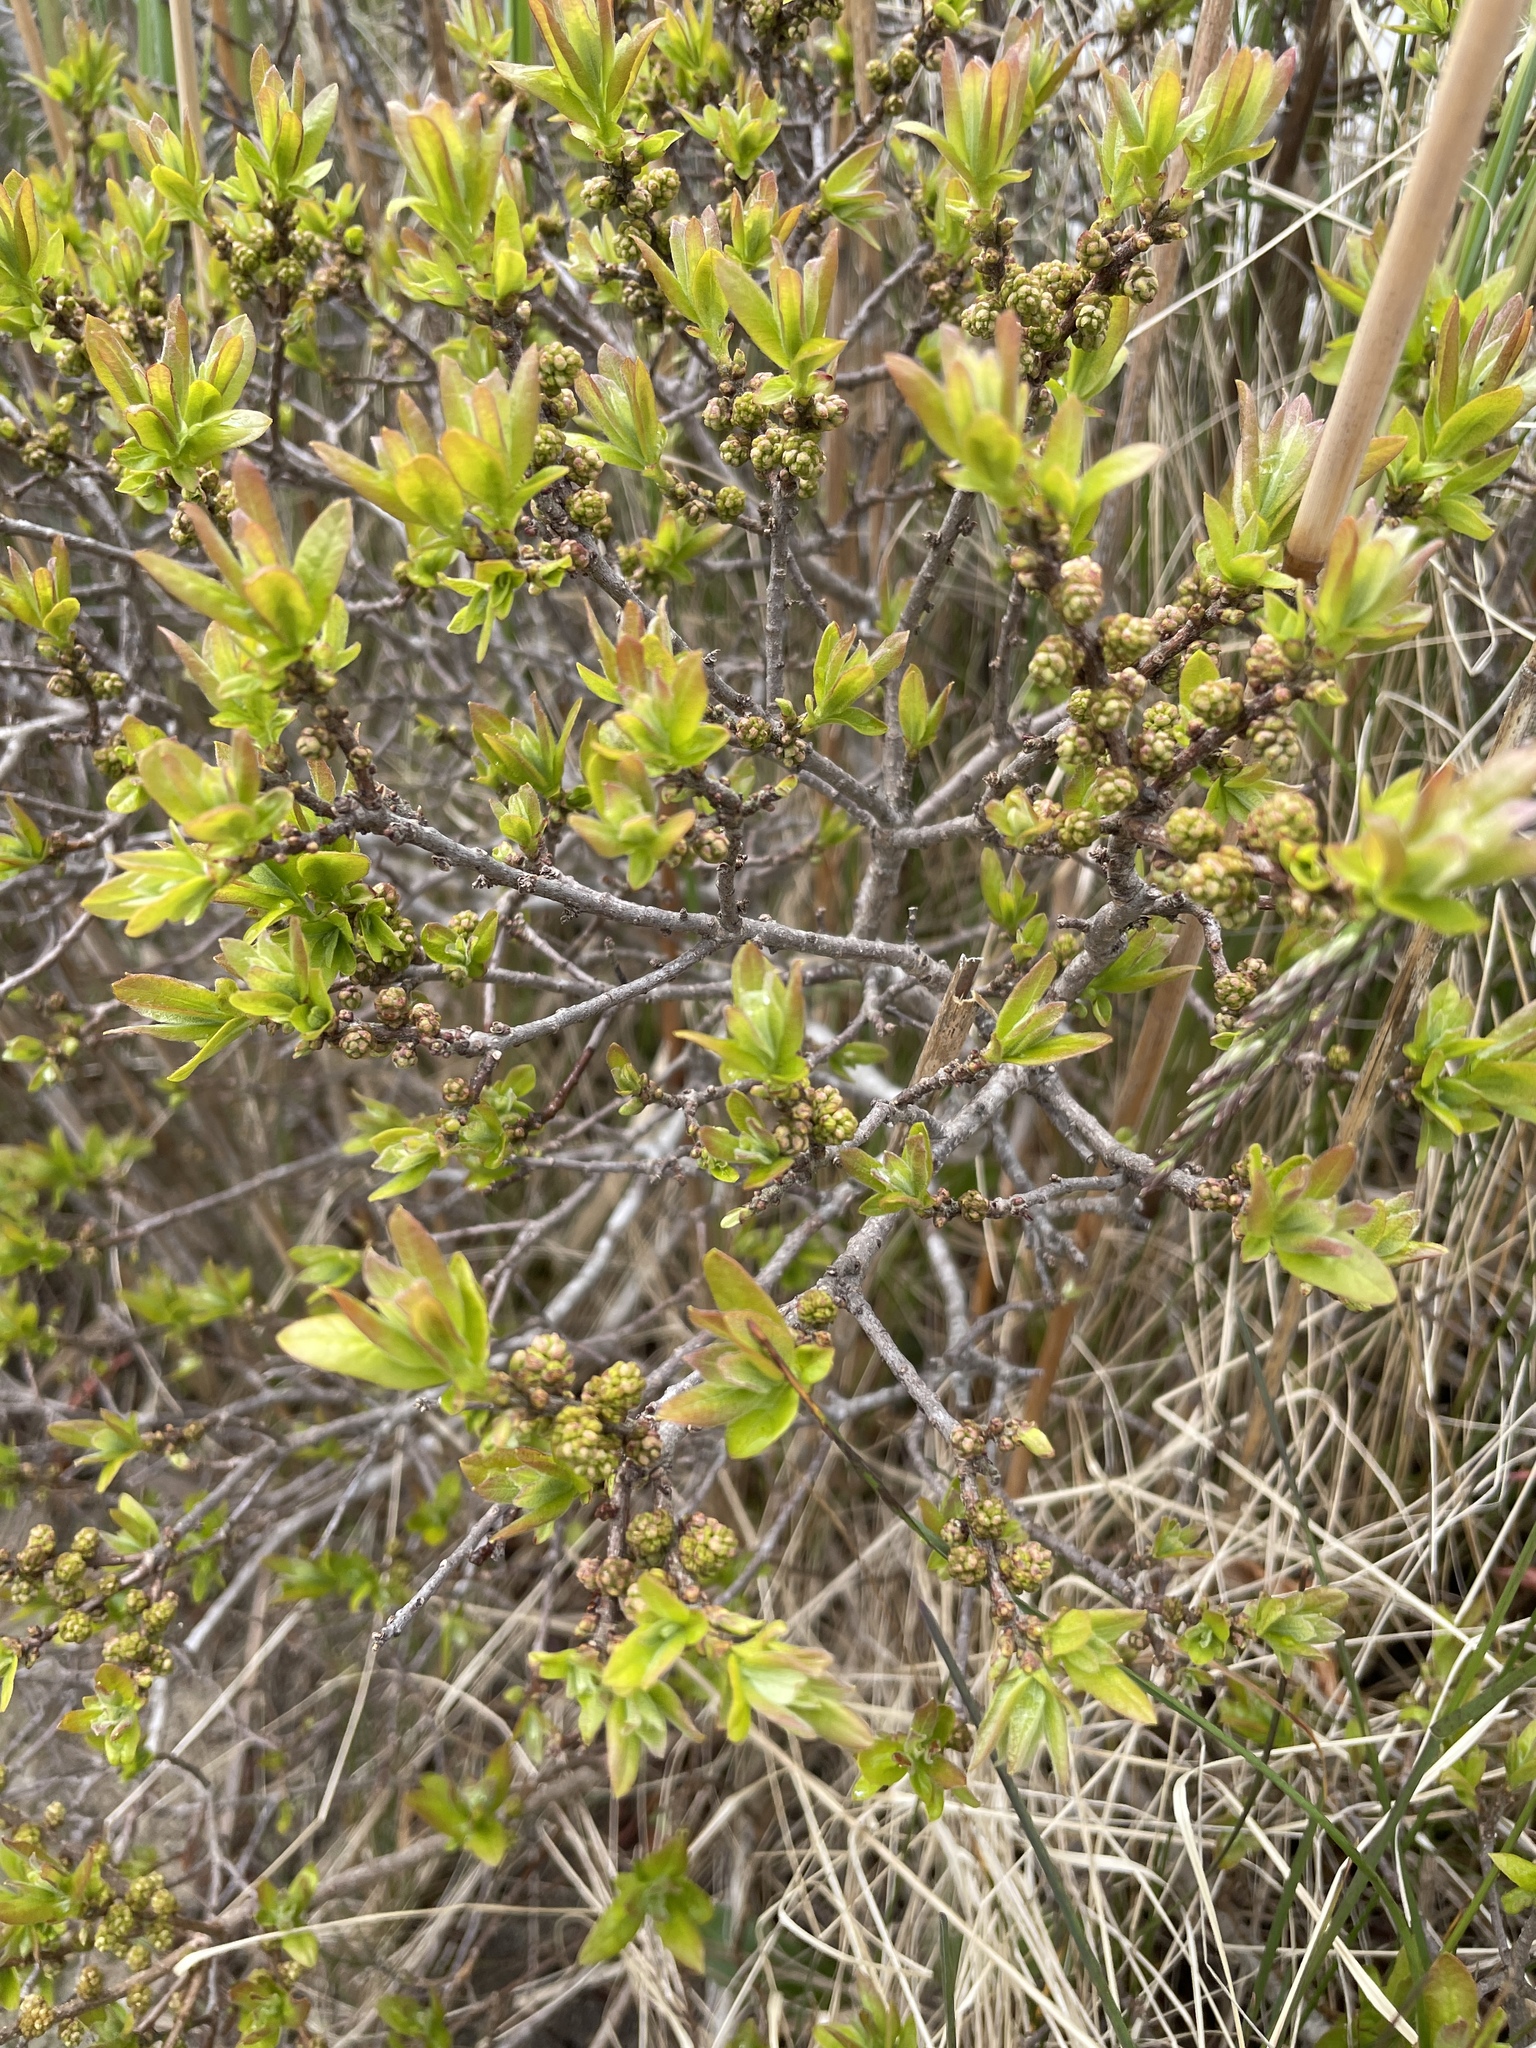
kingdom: Plantae
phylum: Tracheophyta
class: Magnoliopsida
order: Fagales
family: Myricaceae
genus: Morella
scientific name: Morella pensylvanica
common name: Northern bayberry
